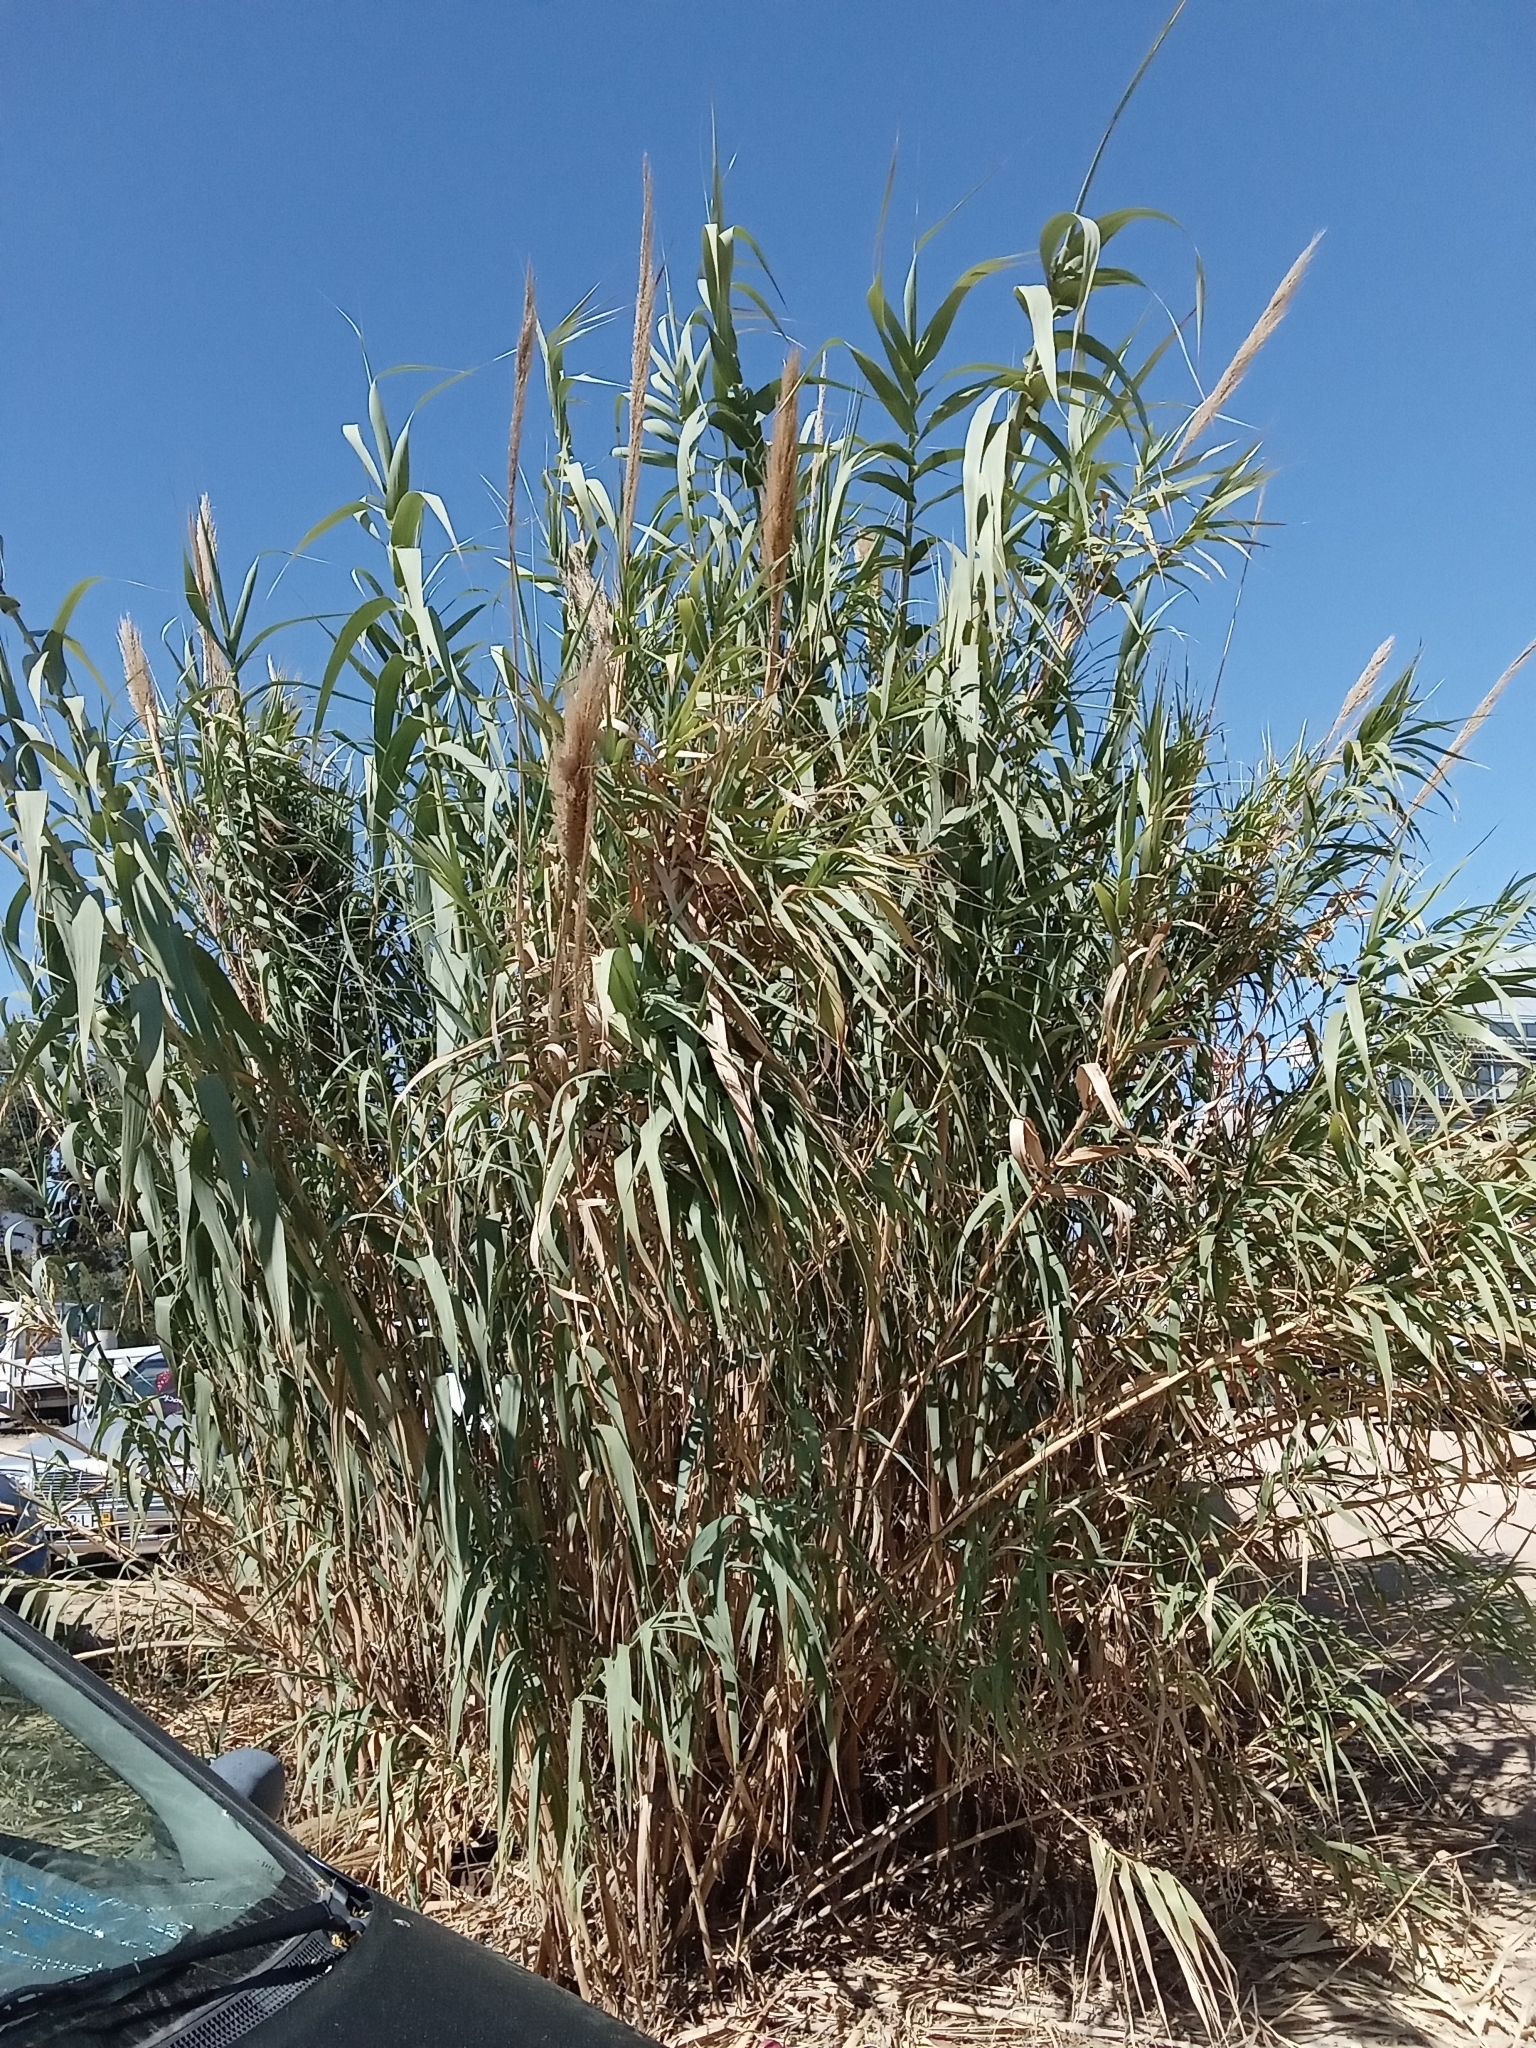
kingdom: Plantae
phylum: Tracheophyta
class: Liliopsida
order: Poales
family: Poaceae
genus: Arundo
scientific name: Arundo donax
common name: Giant reed
